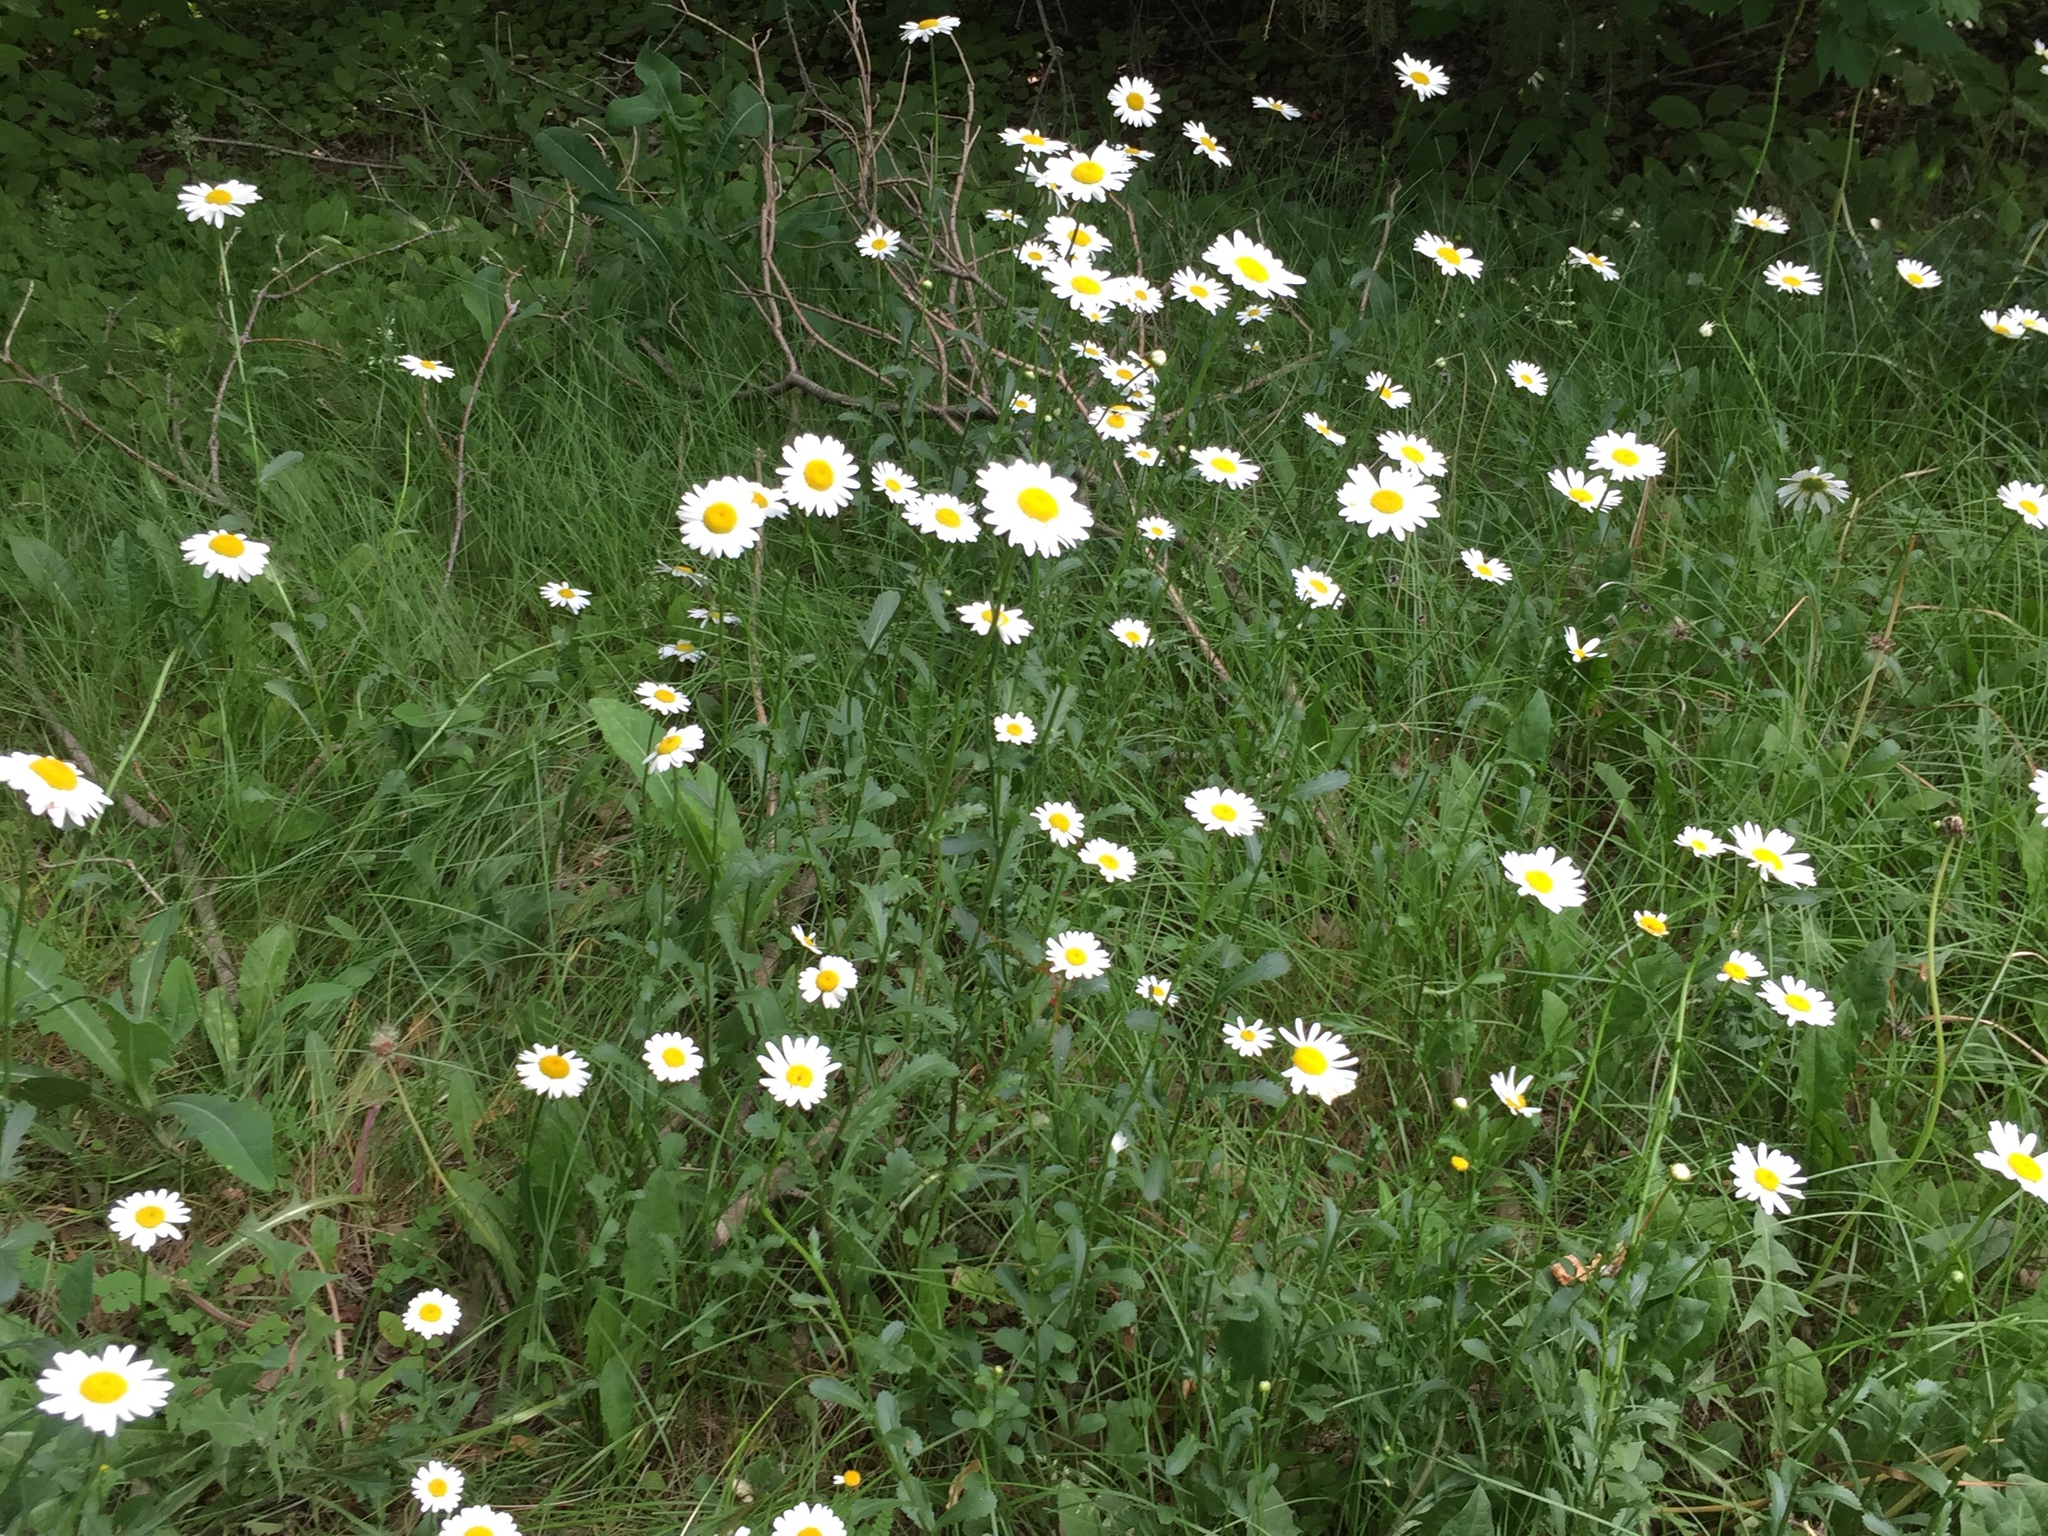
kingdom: Plantae
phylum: Tracheophyta
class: Magnoliopsida
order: Asterales
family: Asteraceae
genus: Leucanthemum
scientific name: Leucanthemum vulgare
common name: Oxeye daisy
